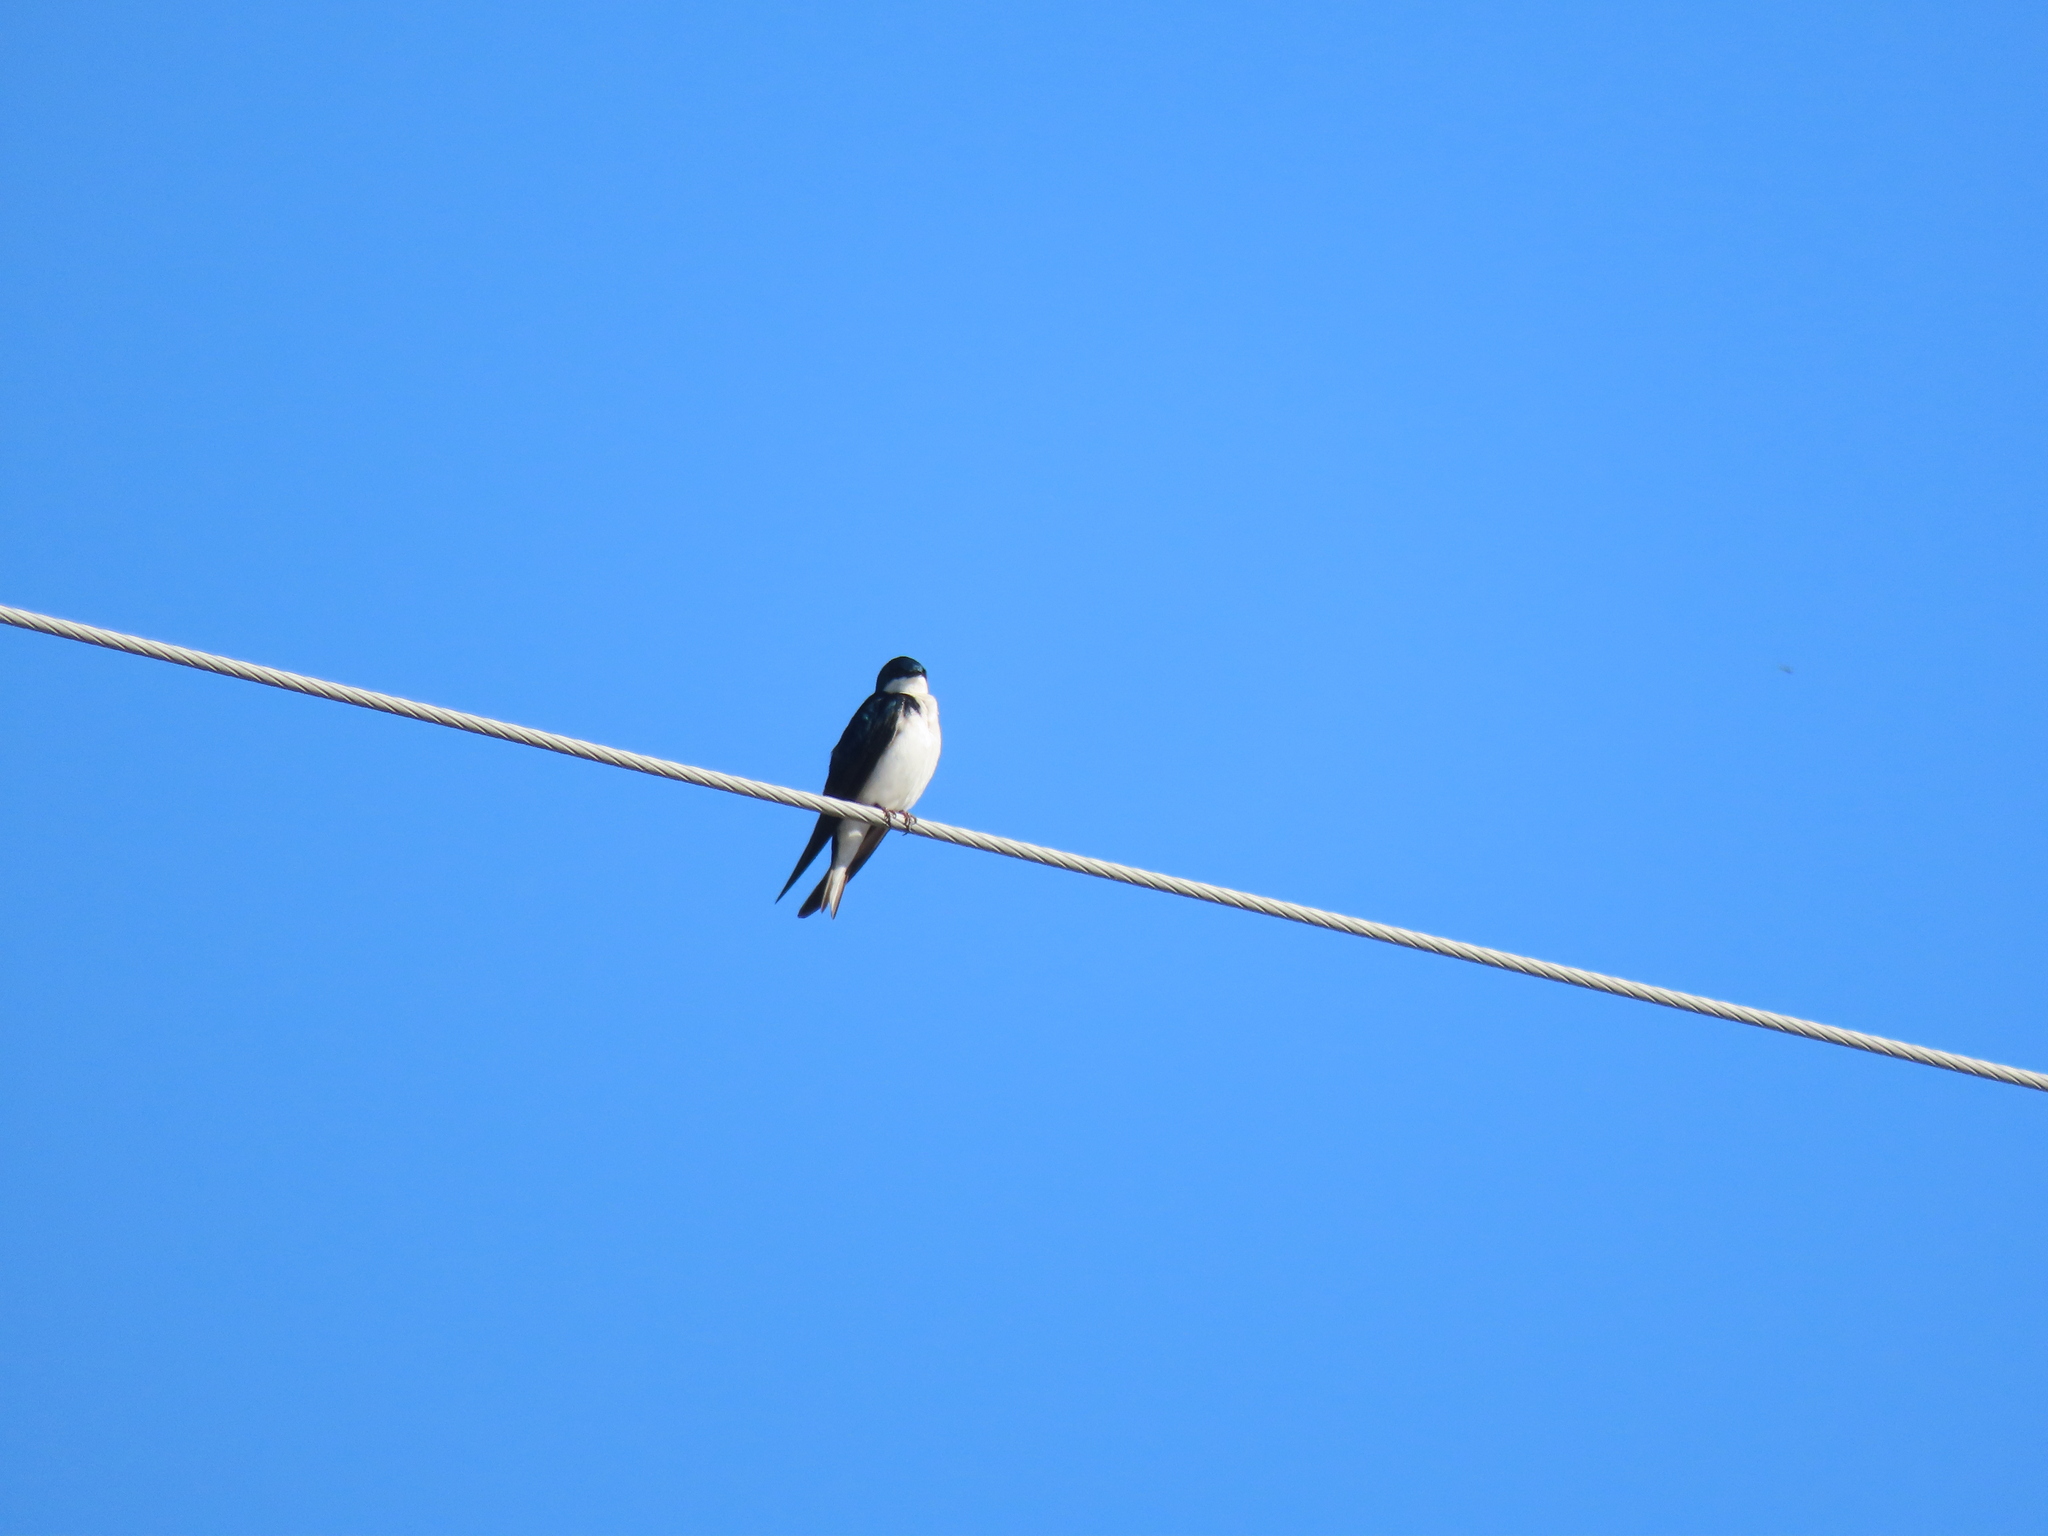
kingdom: Animalia
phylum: Chordata
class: Aves
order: Passeriformes
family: Hirundinidae
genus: Tachycineta
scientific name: Tachycineta bicolor
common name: Tree swallow
